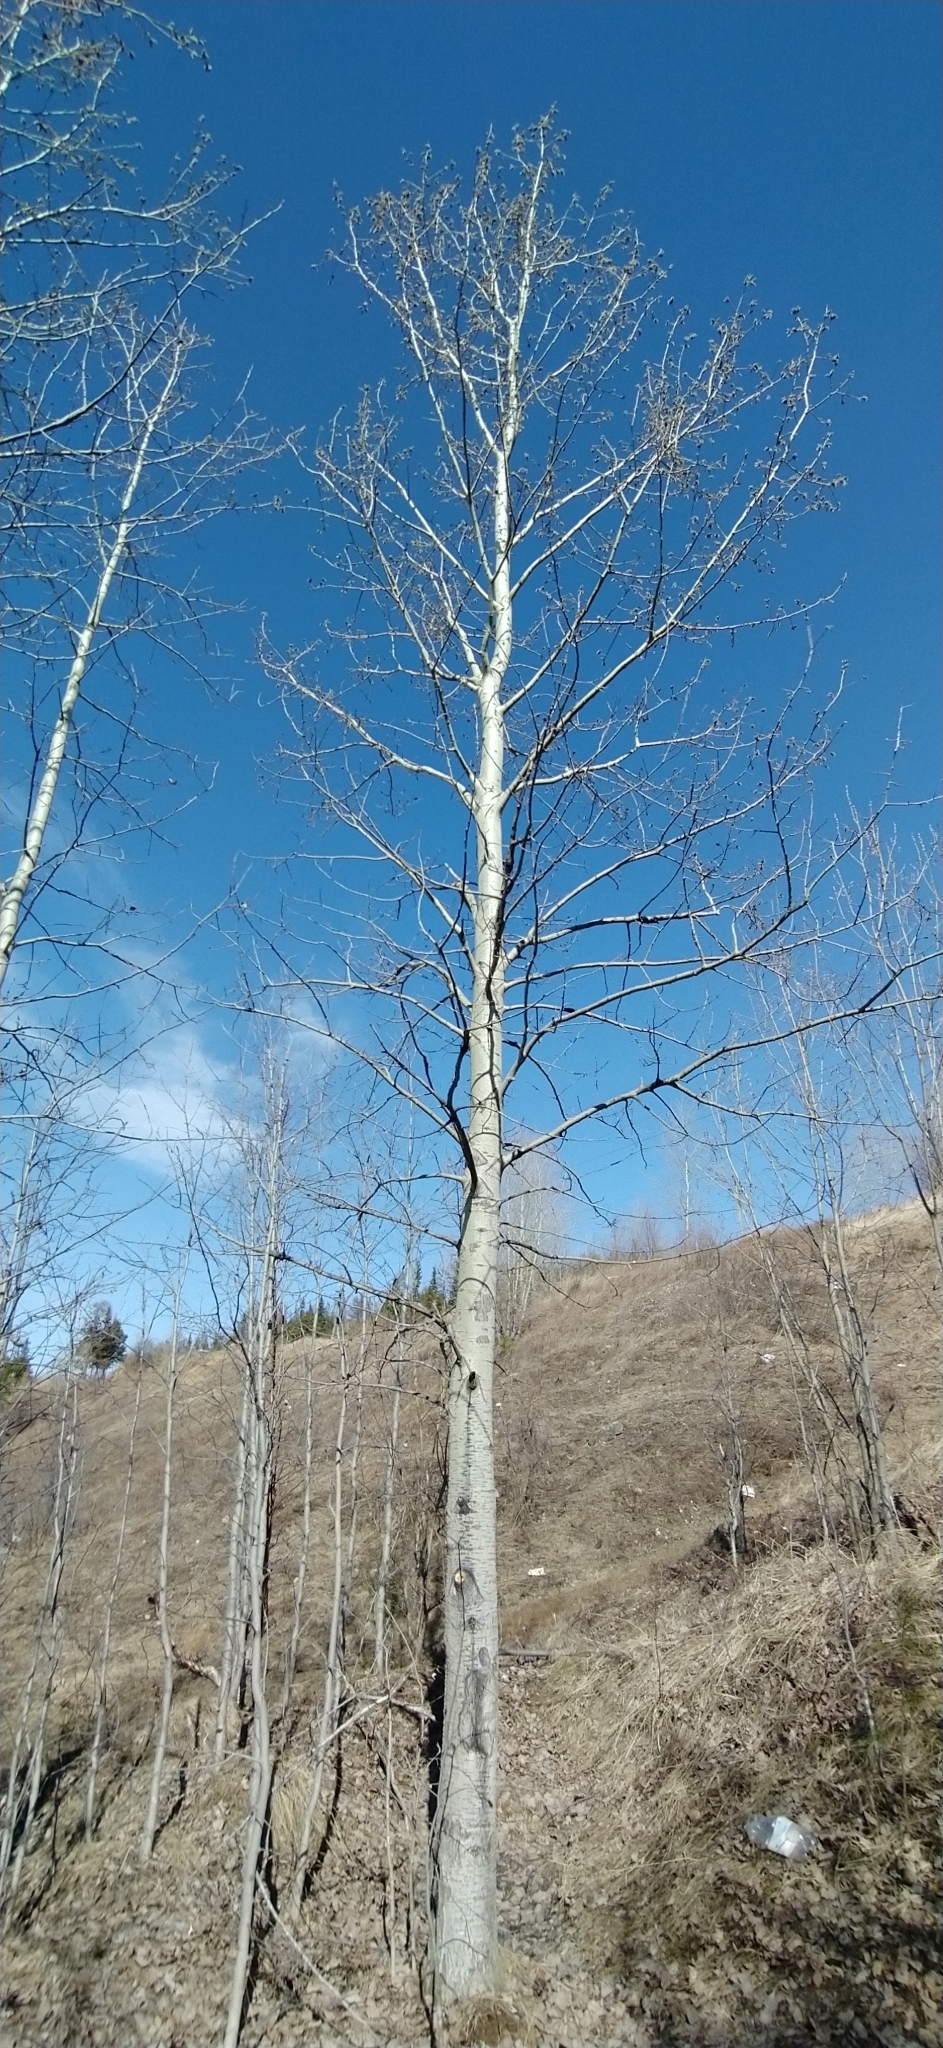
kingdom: Plantae
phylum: Tracheophyta
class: Magnoliopsida
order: Malpighiales
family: Salicaceae
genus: Populus
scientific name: Populus tremula
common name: European aspen
